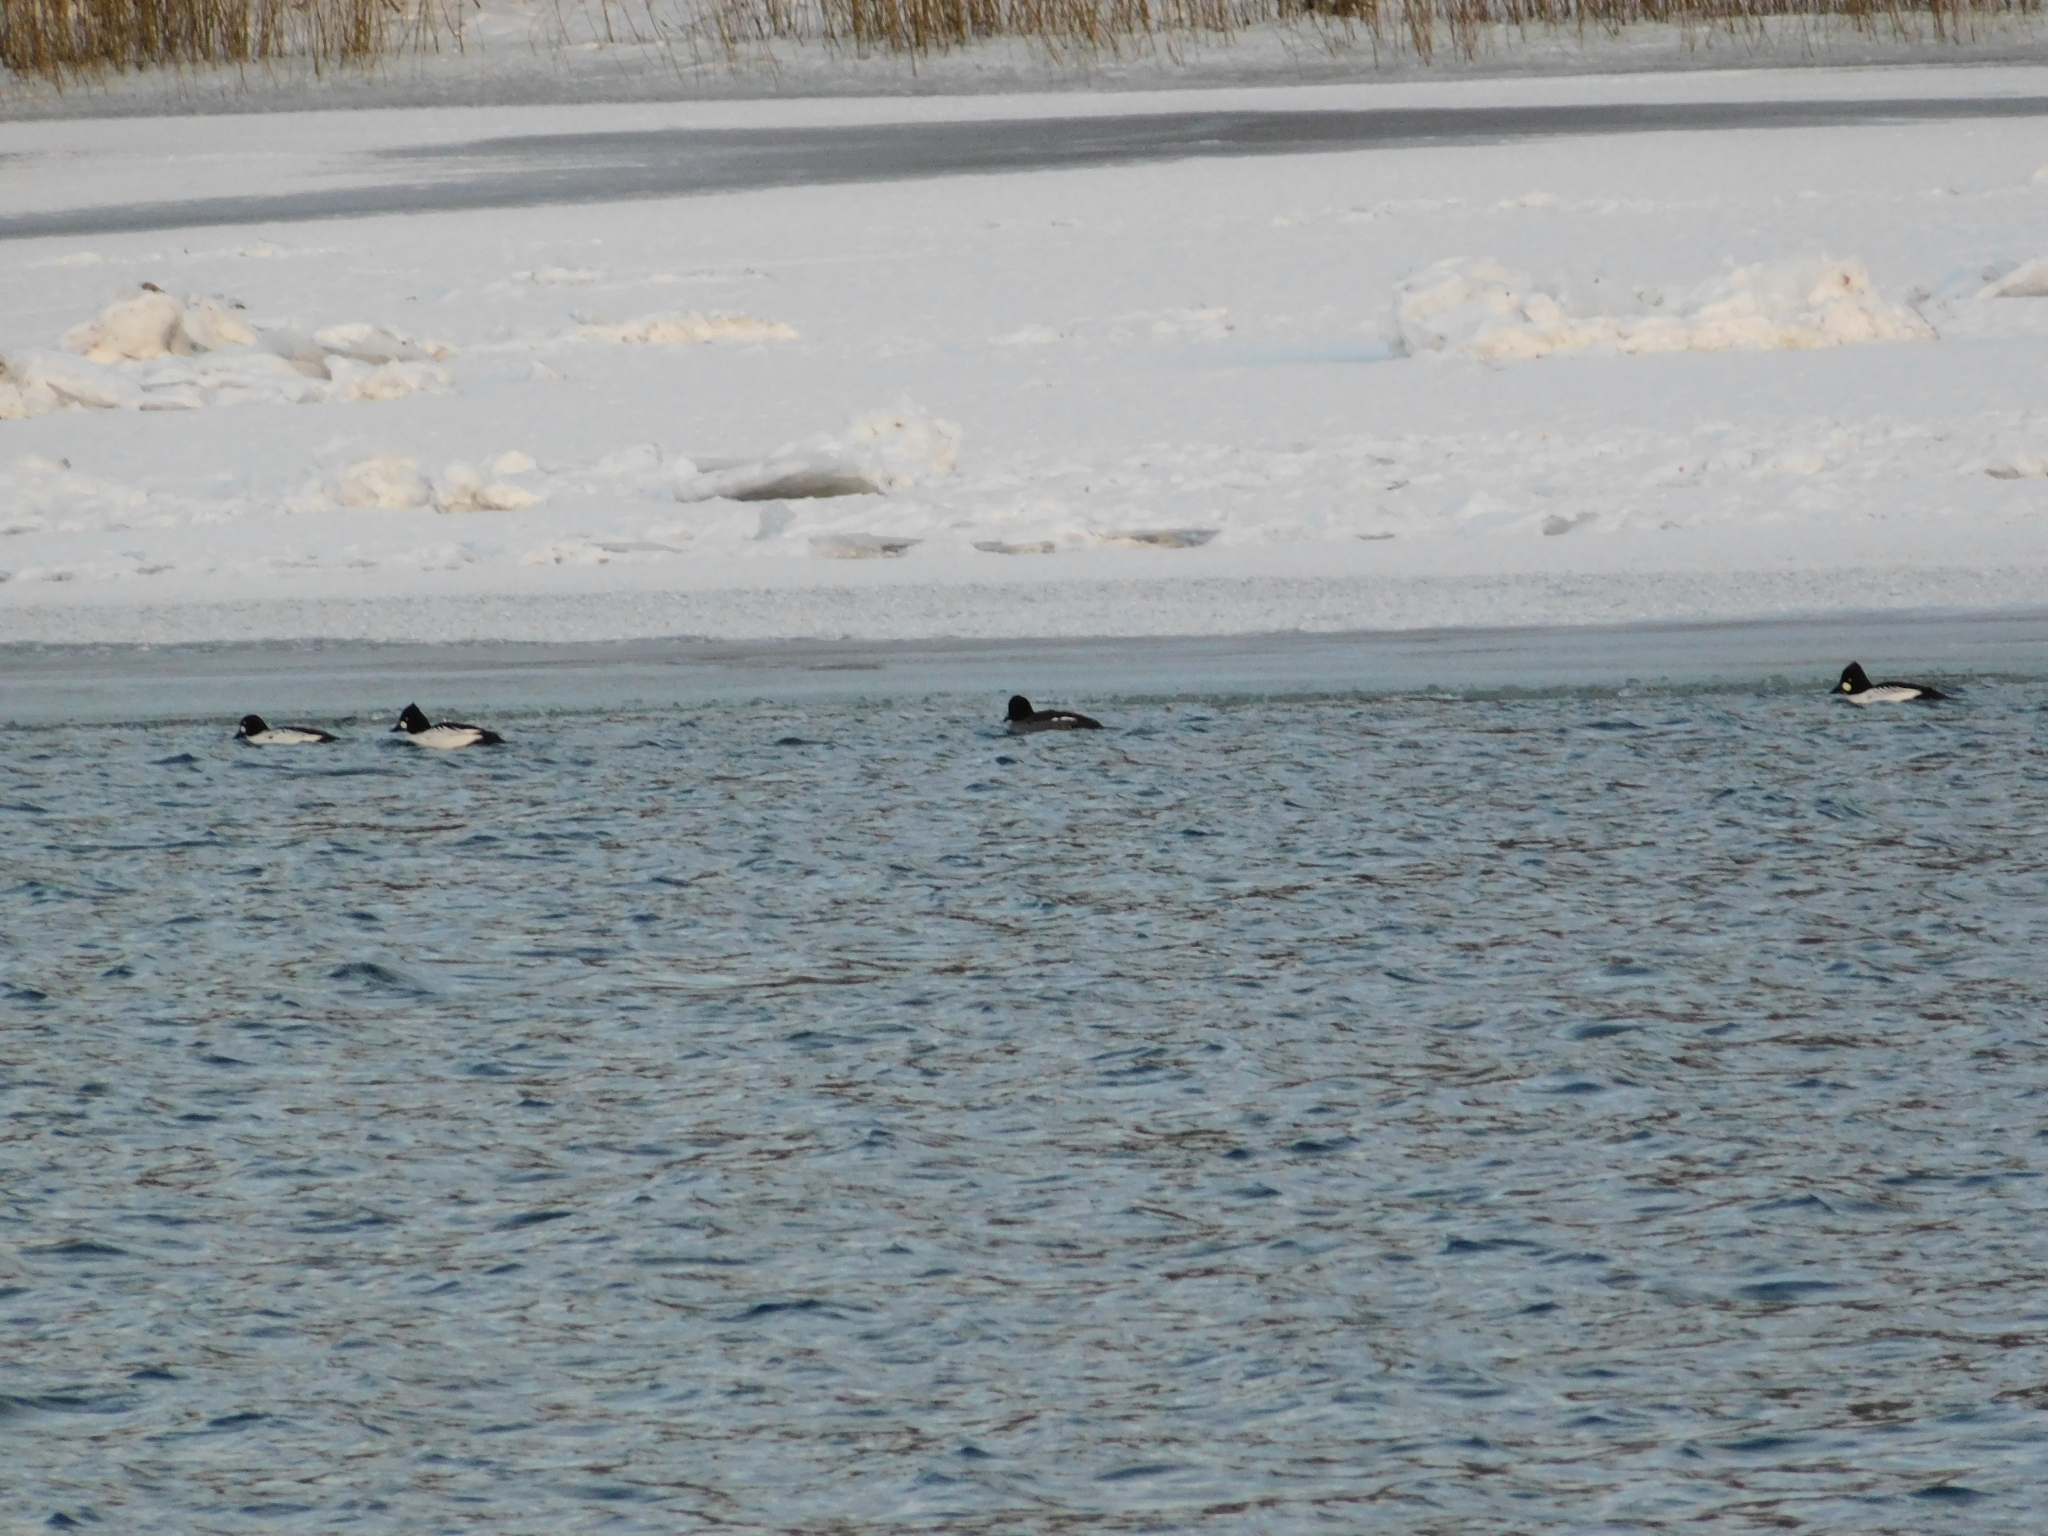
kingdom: Animalia
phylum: Chordata
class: Aves
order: Anseriformes
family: Anatidae
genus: Bucephala
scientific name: Bucephala clangula
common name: Common goldeneye
